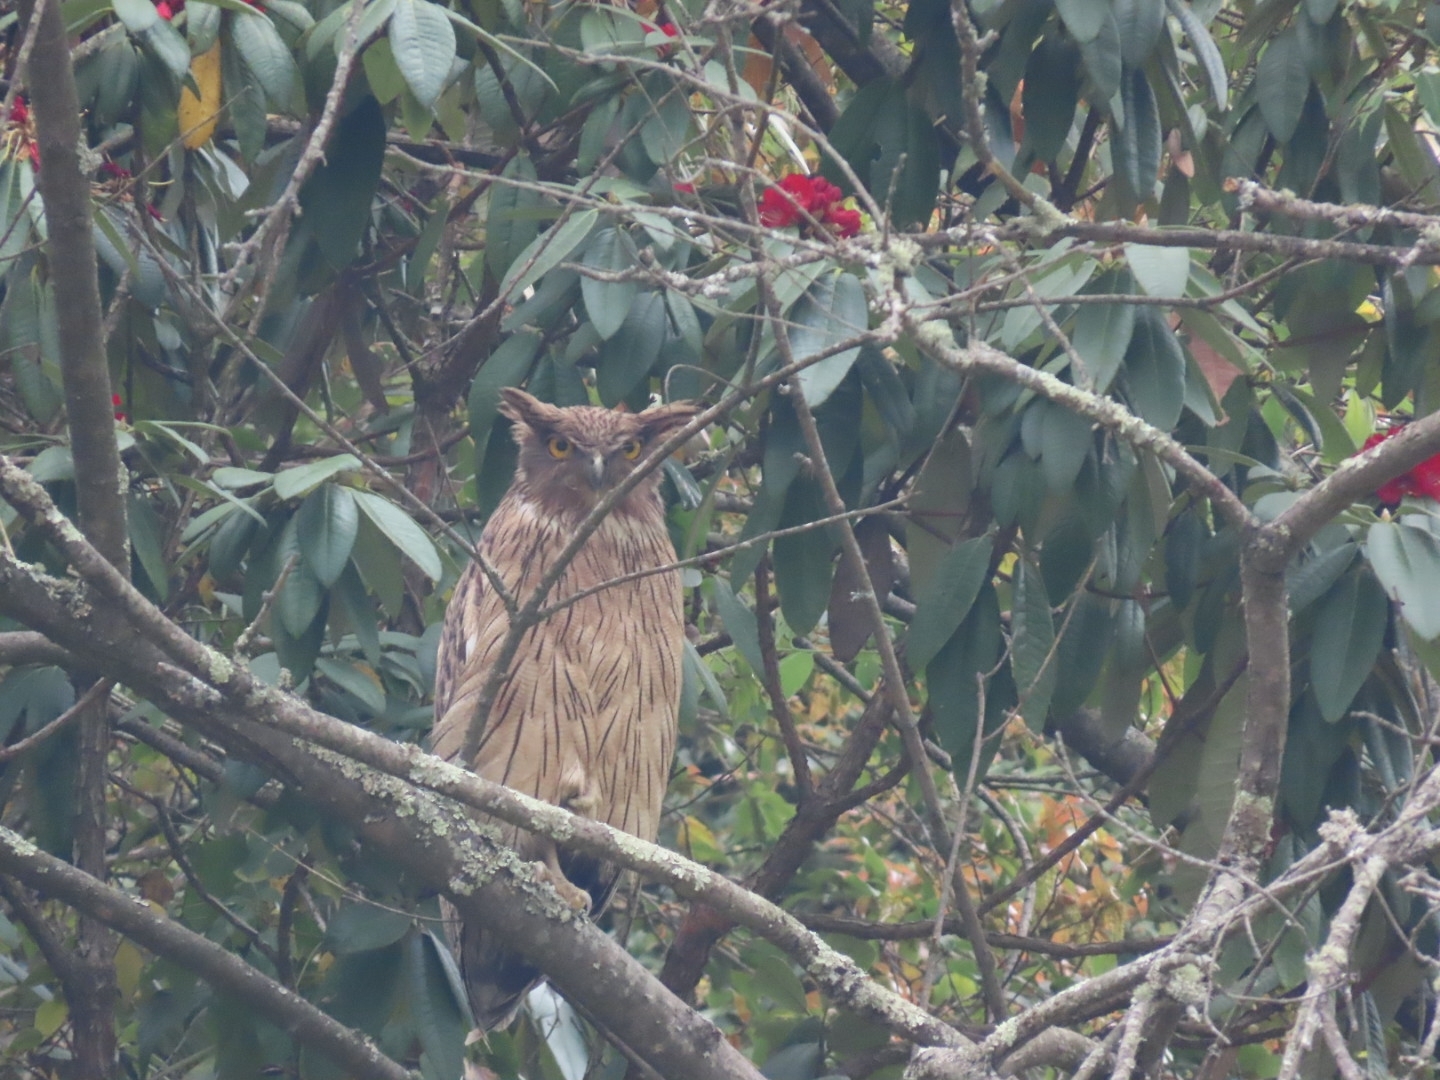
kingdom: Animalia
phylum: Chordata
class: Aves
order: Strigiformes
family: Strigidae
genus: Ketupa
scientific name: Ketupa zeylonensis
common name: Brown fish owl
